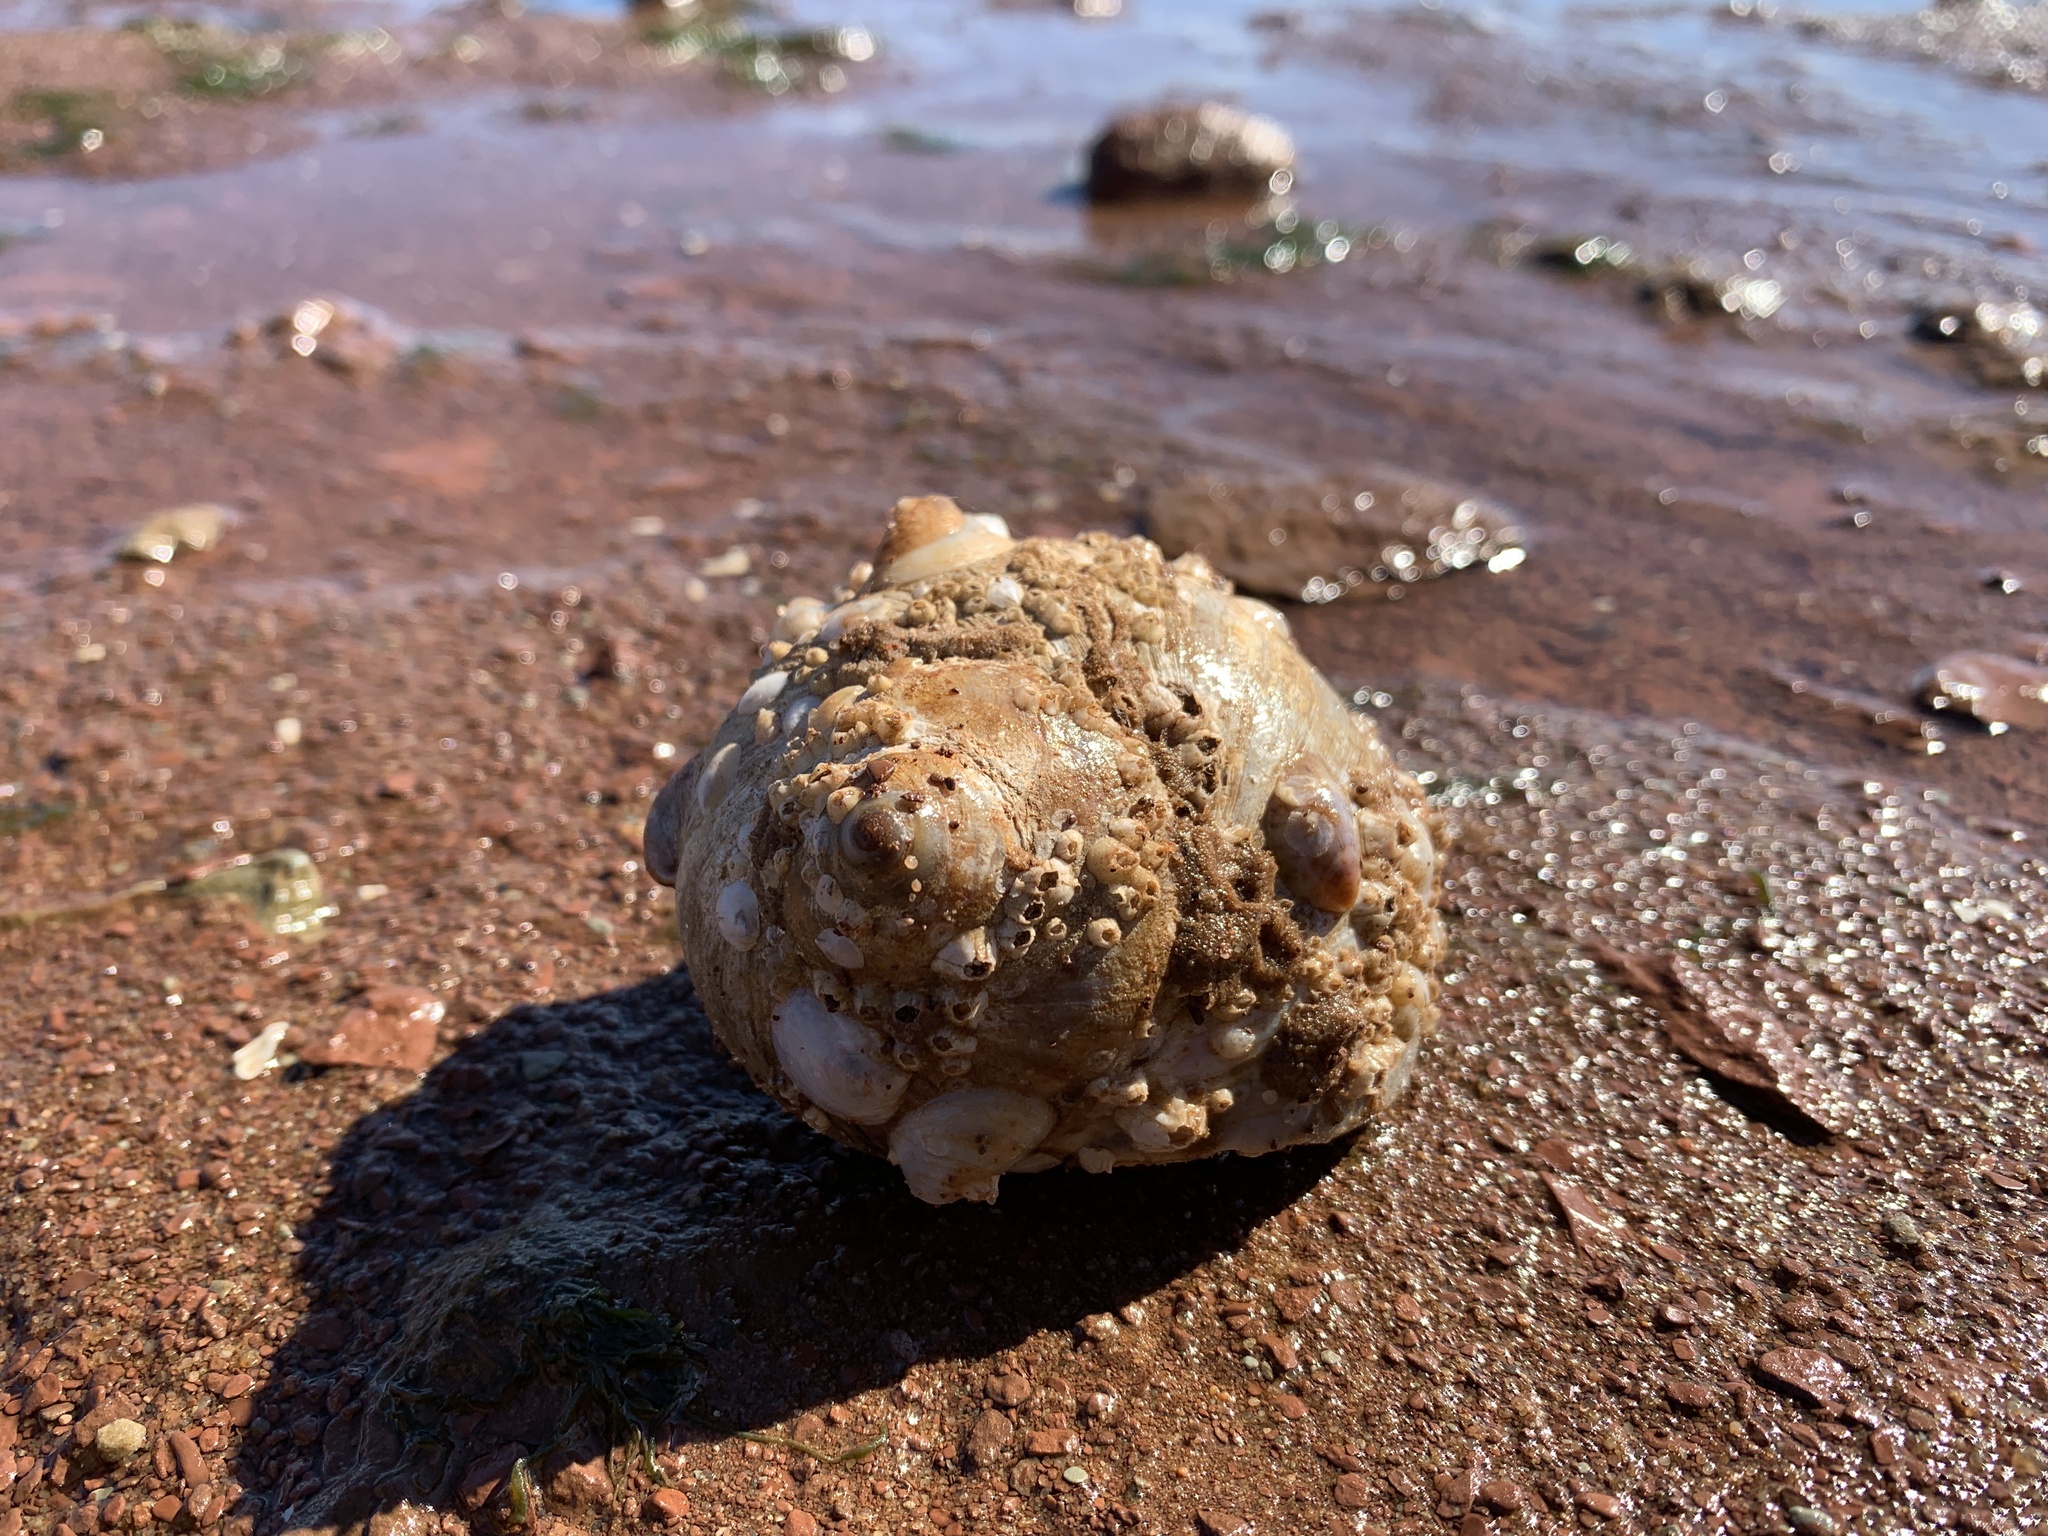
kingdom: Animalia
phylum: Mollusca
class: Gastropoda
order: Littorinimorpha
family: Naticidae
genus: Euspira
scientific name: Euspira heros
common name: Common northern moonsnail
